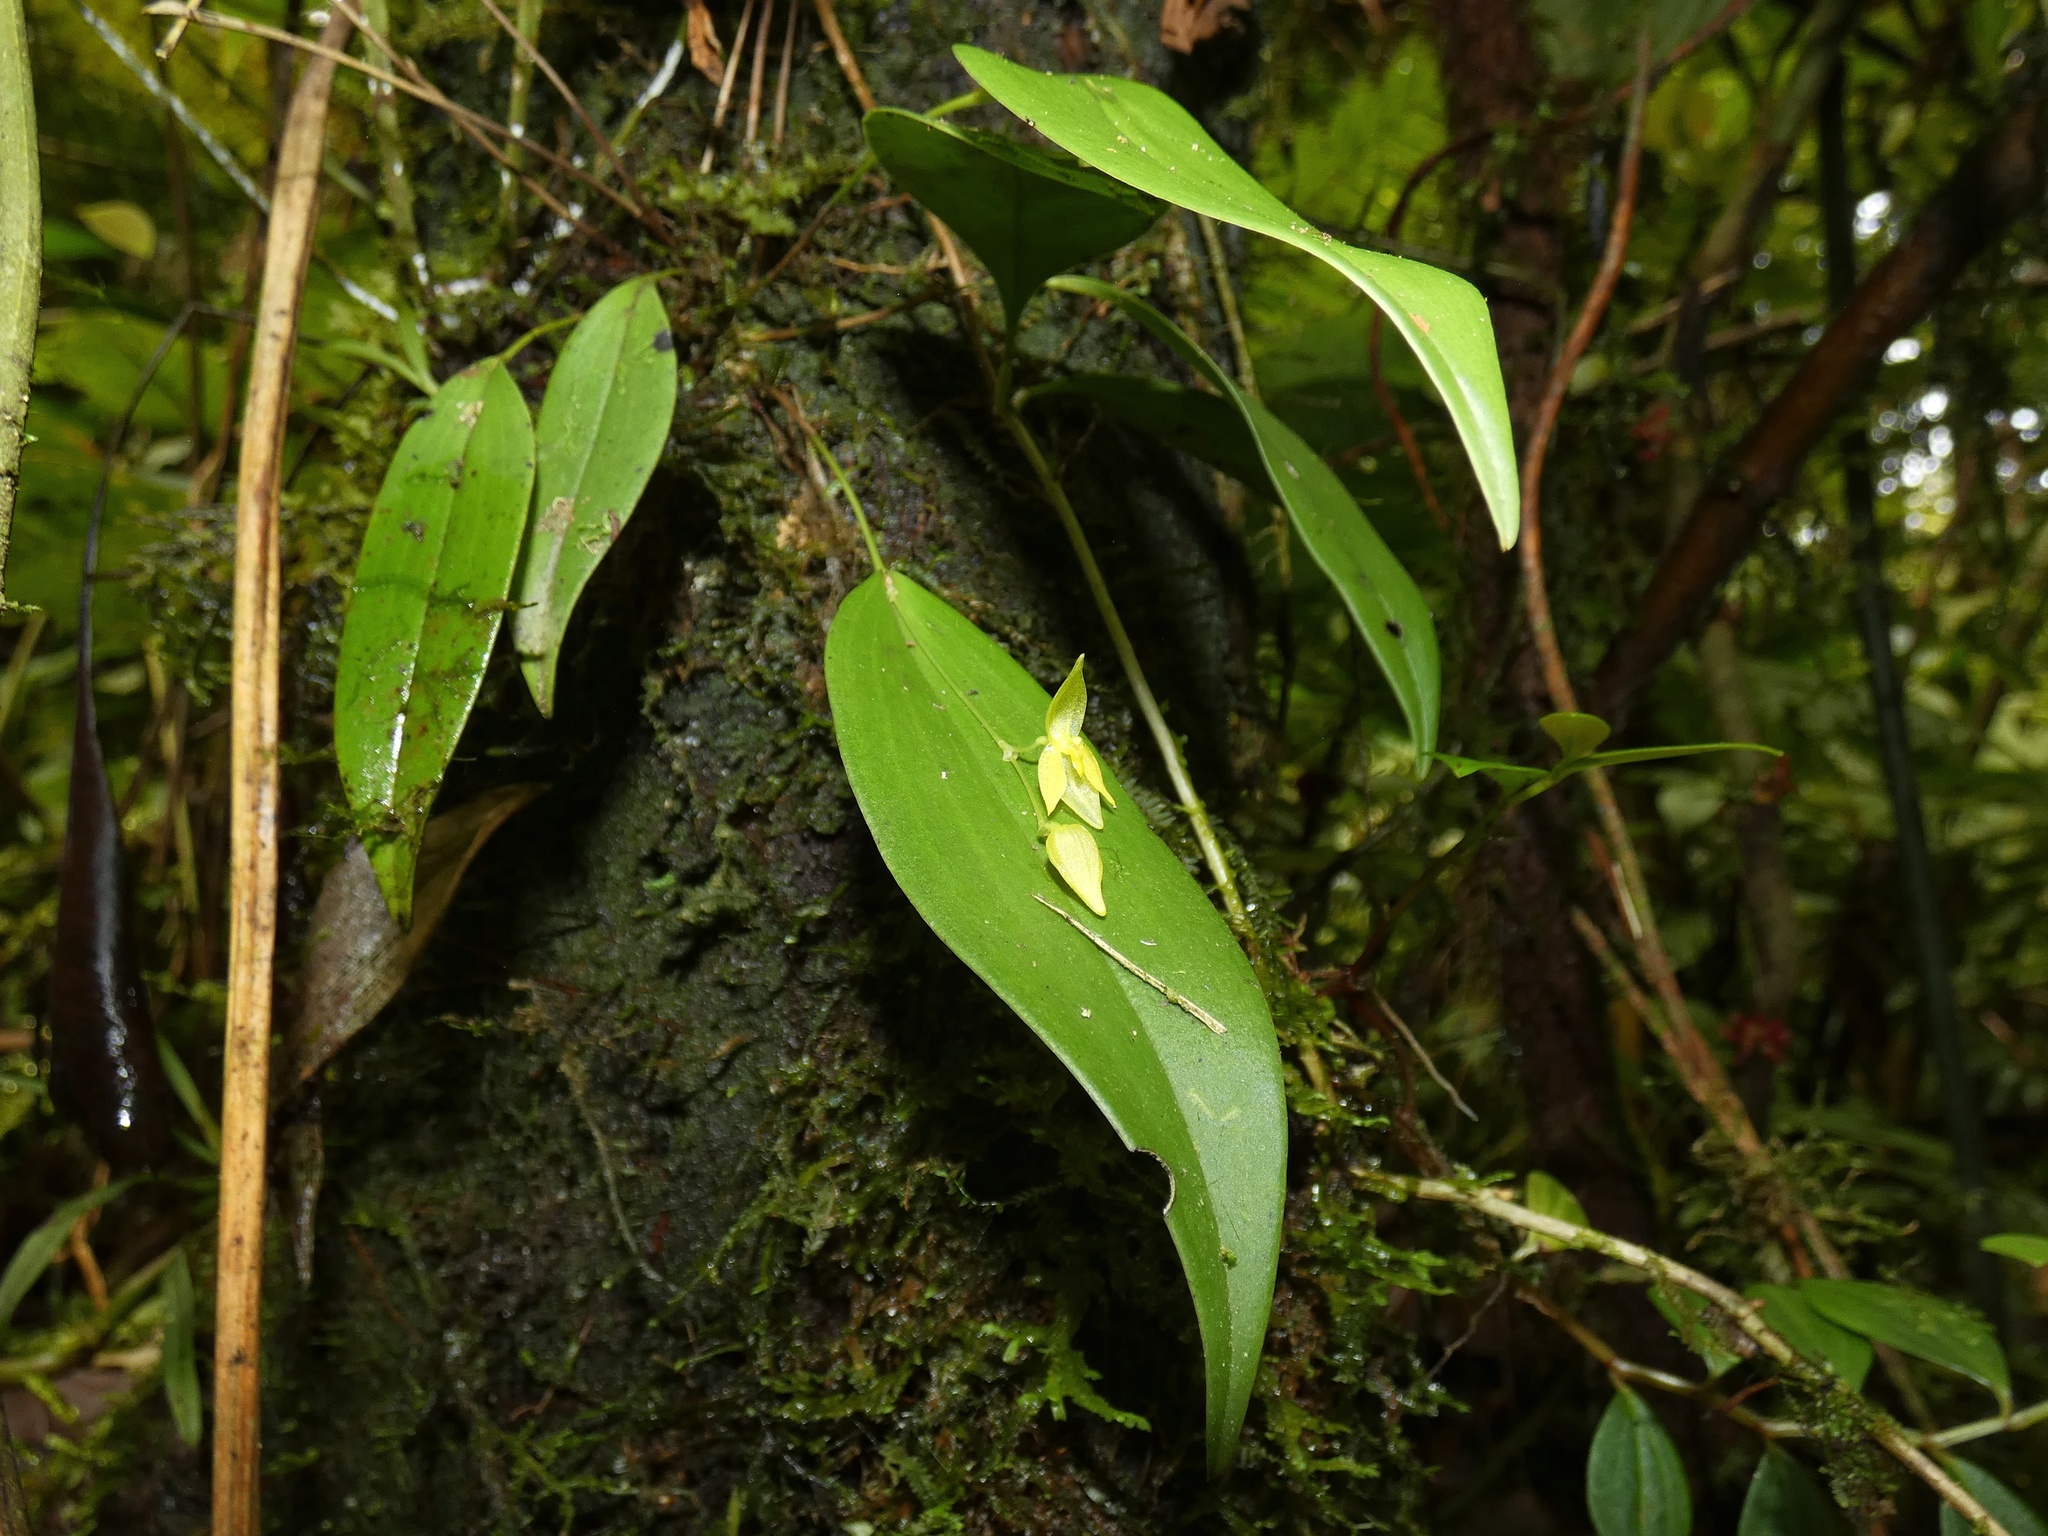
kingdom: Plantae
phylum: Tracheophyta
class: Liliopsida
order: Asparagales
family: Orchidaceae
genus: Pleurothallis
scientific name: Pleurothallis rowleei
